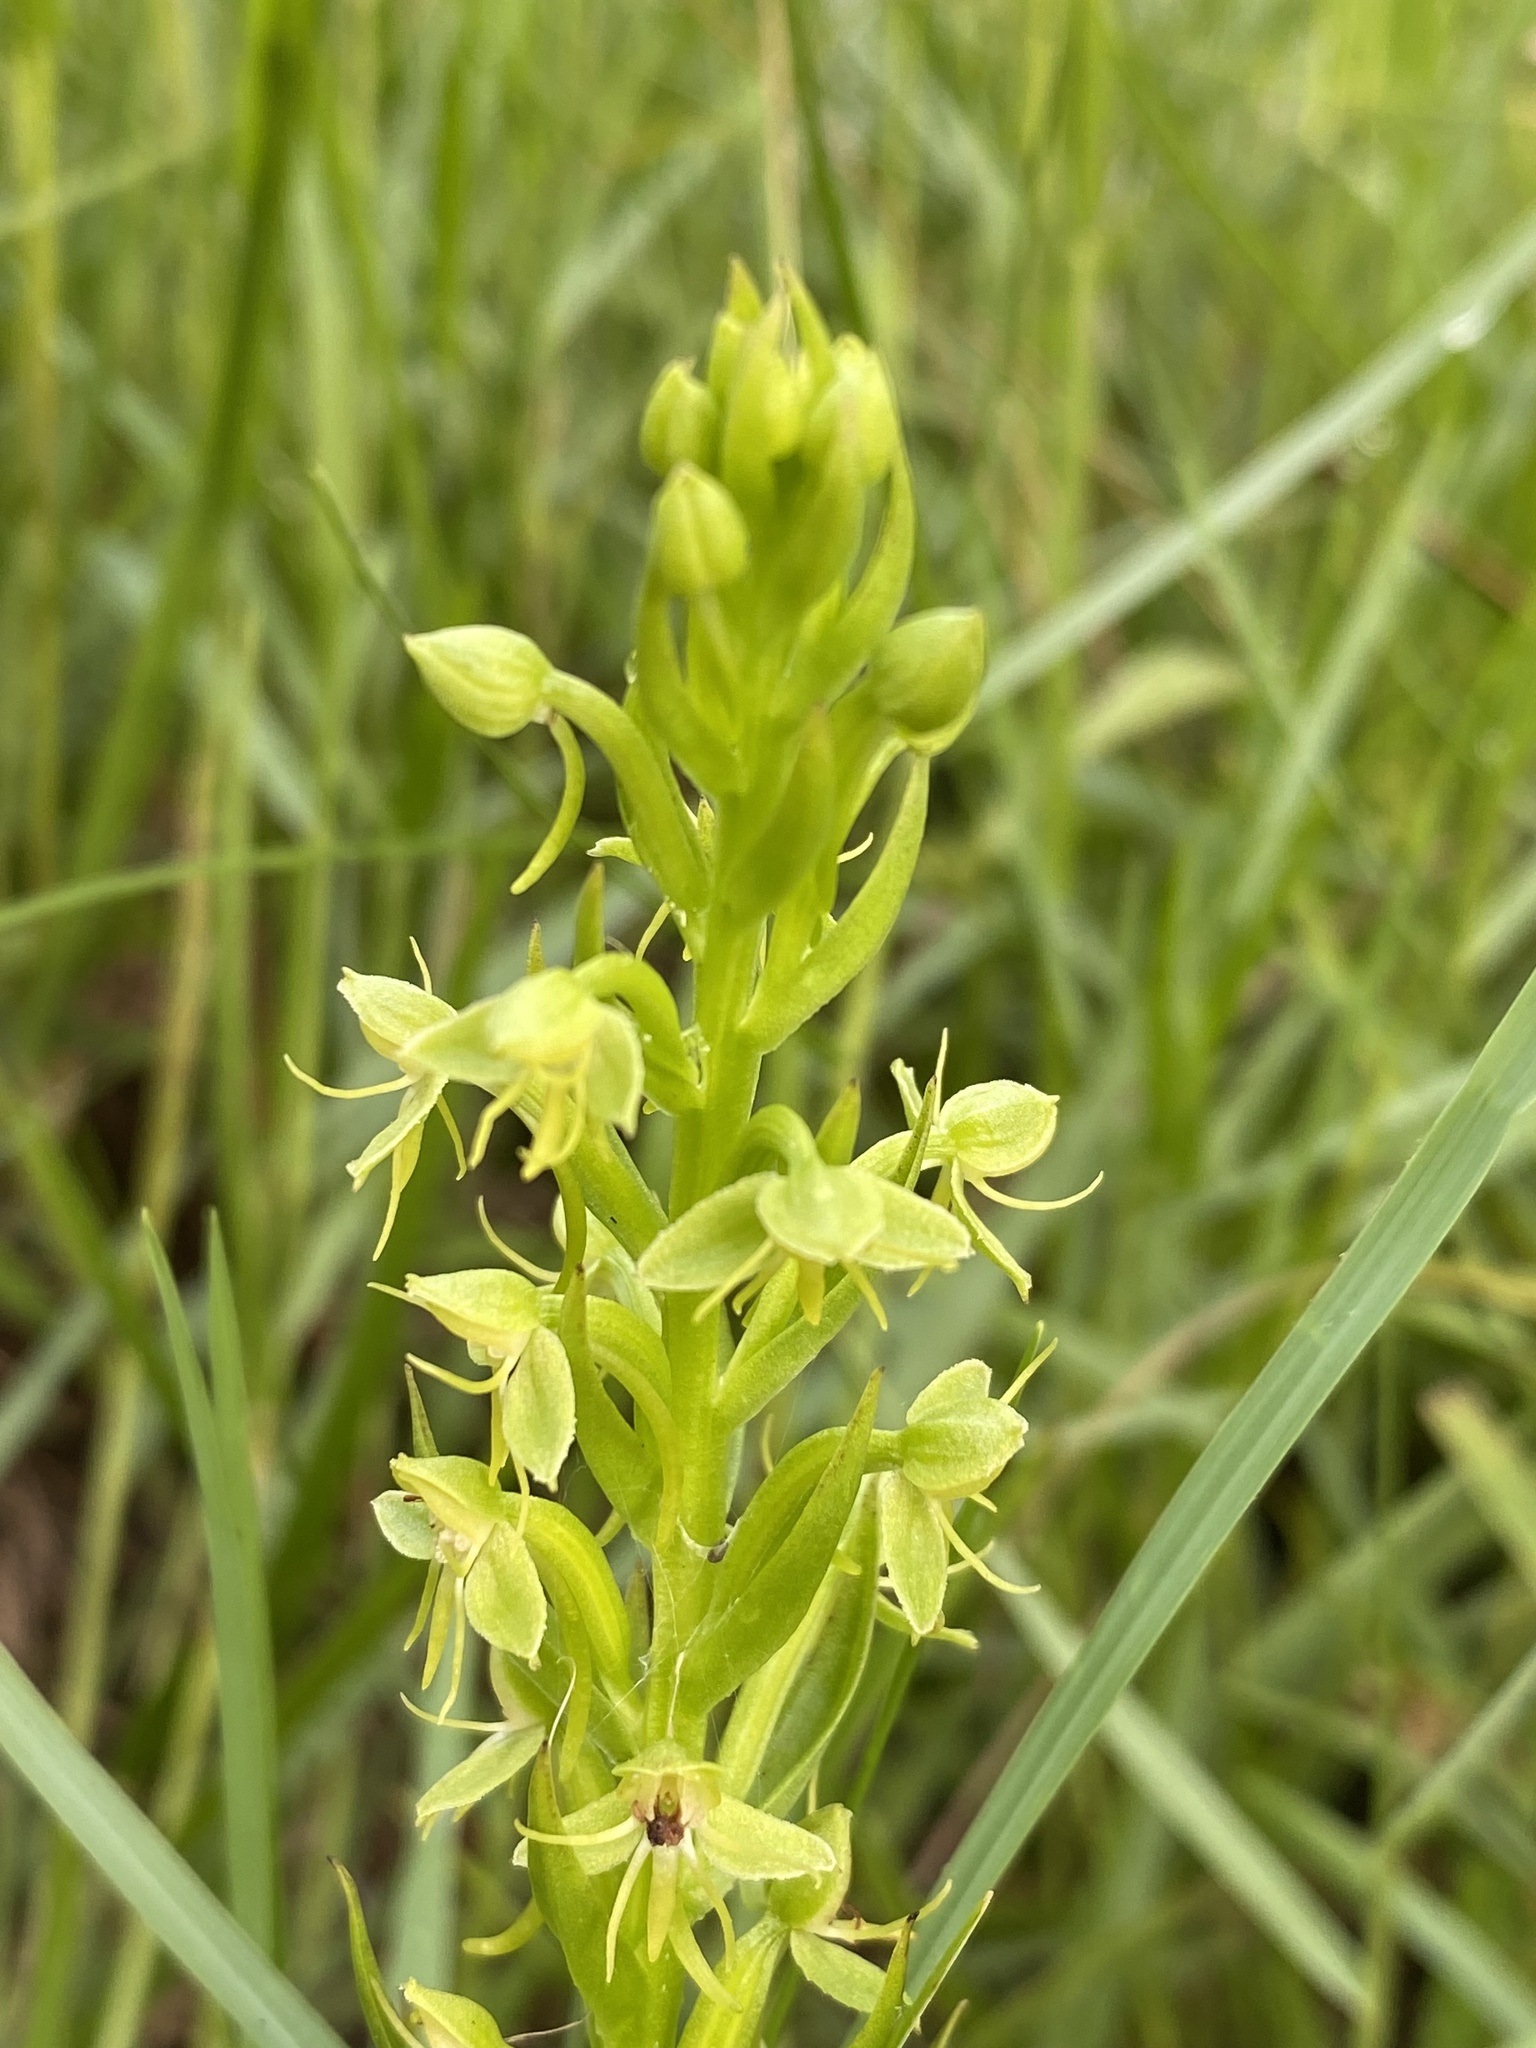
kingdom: Plantae
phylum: Tracheophyta
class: Liliopsida
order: Asparagales
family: Orchidaceae
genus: Habenaria
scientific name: Habenaria repens
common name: Water orchid
